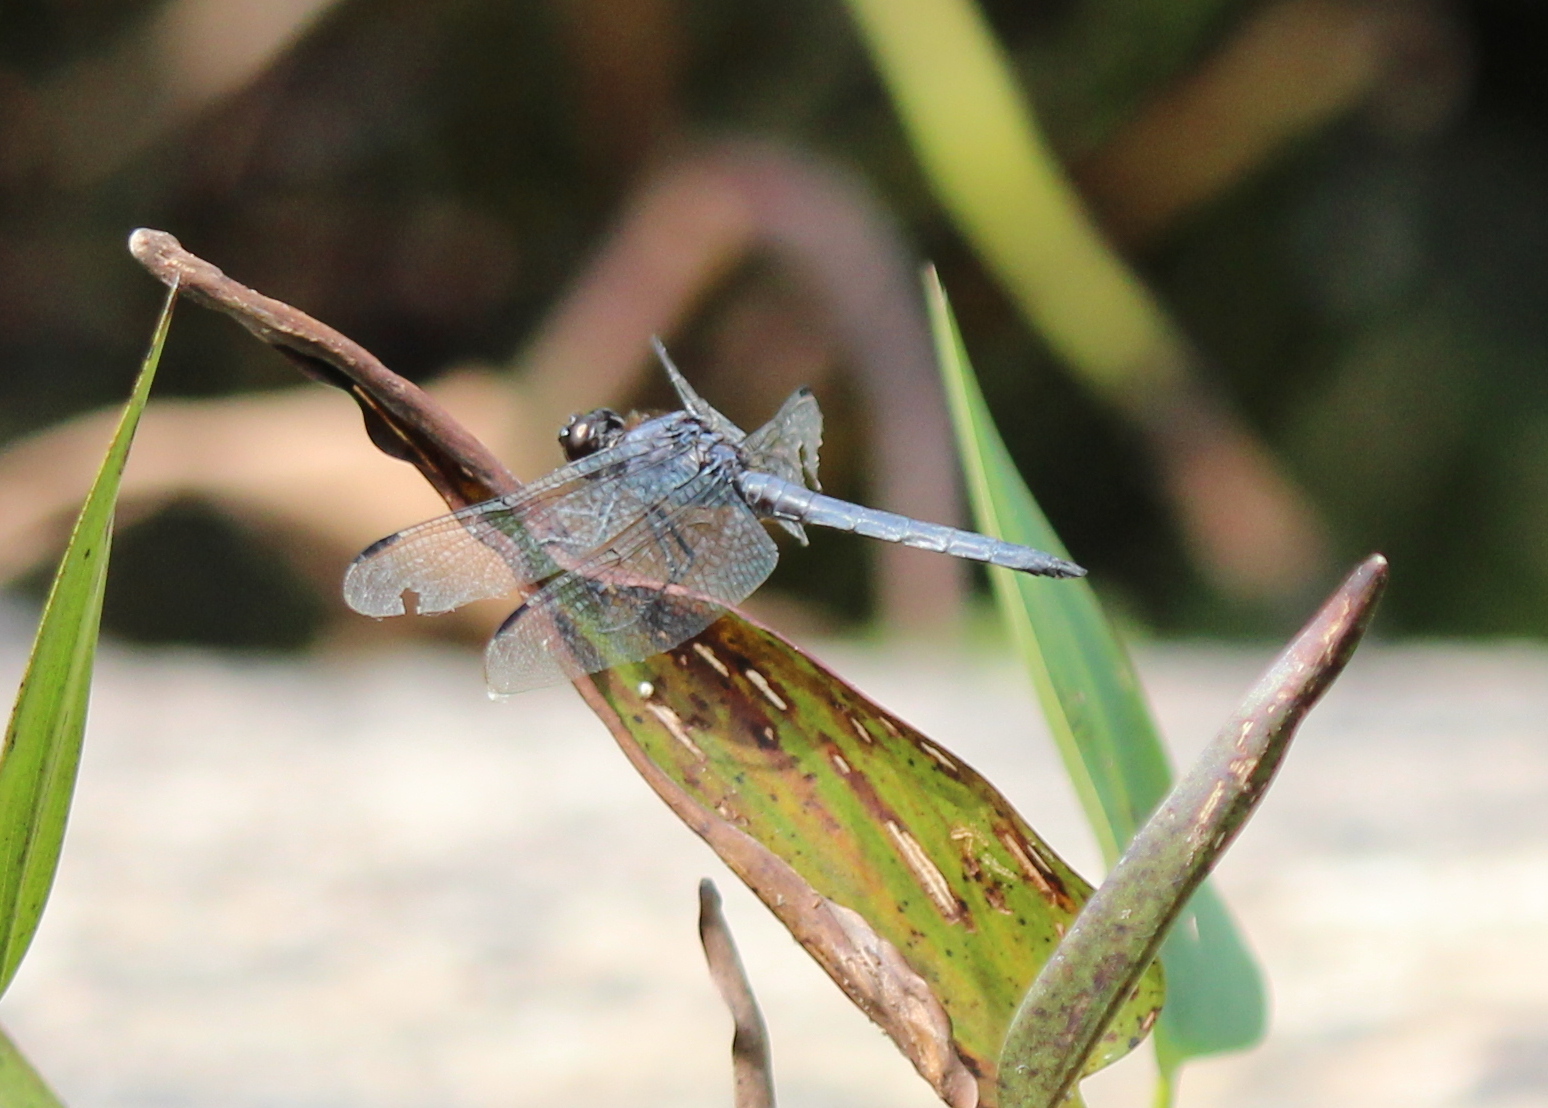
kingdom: Animalia
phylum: Arthropoda
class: Insecta
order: Odonata
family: Libellulidae
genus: Libellula
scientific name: Libellula incesta
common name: Slaty skimmer
